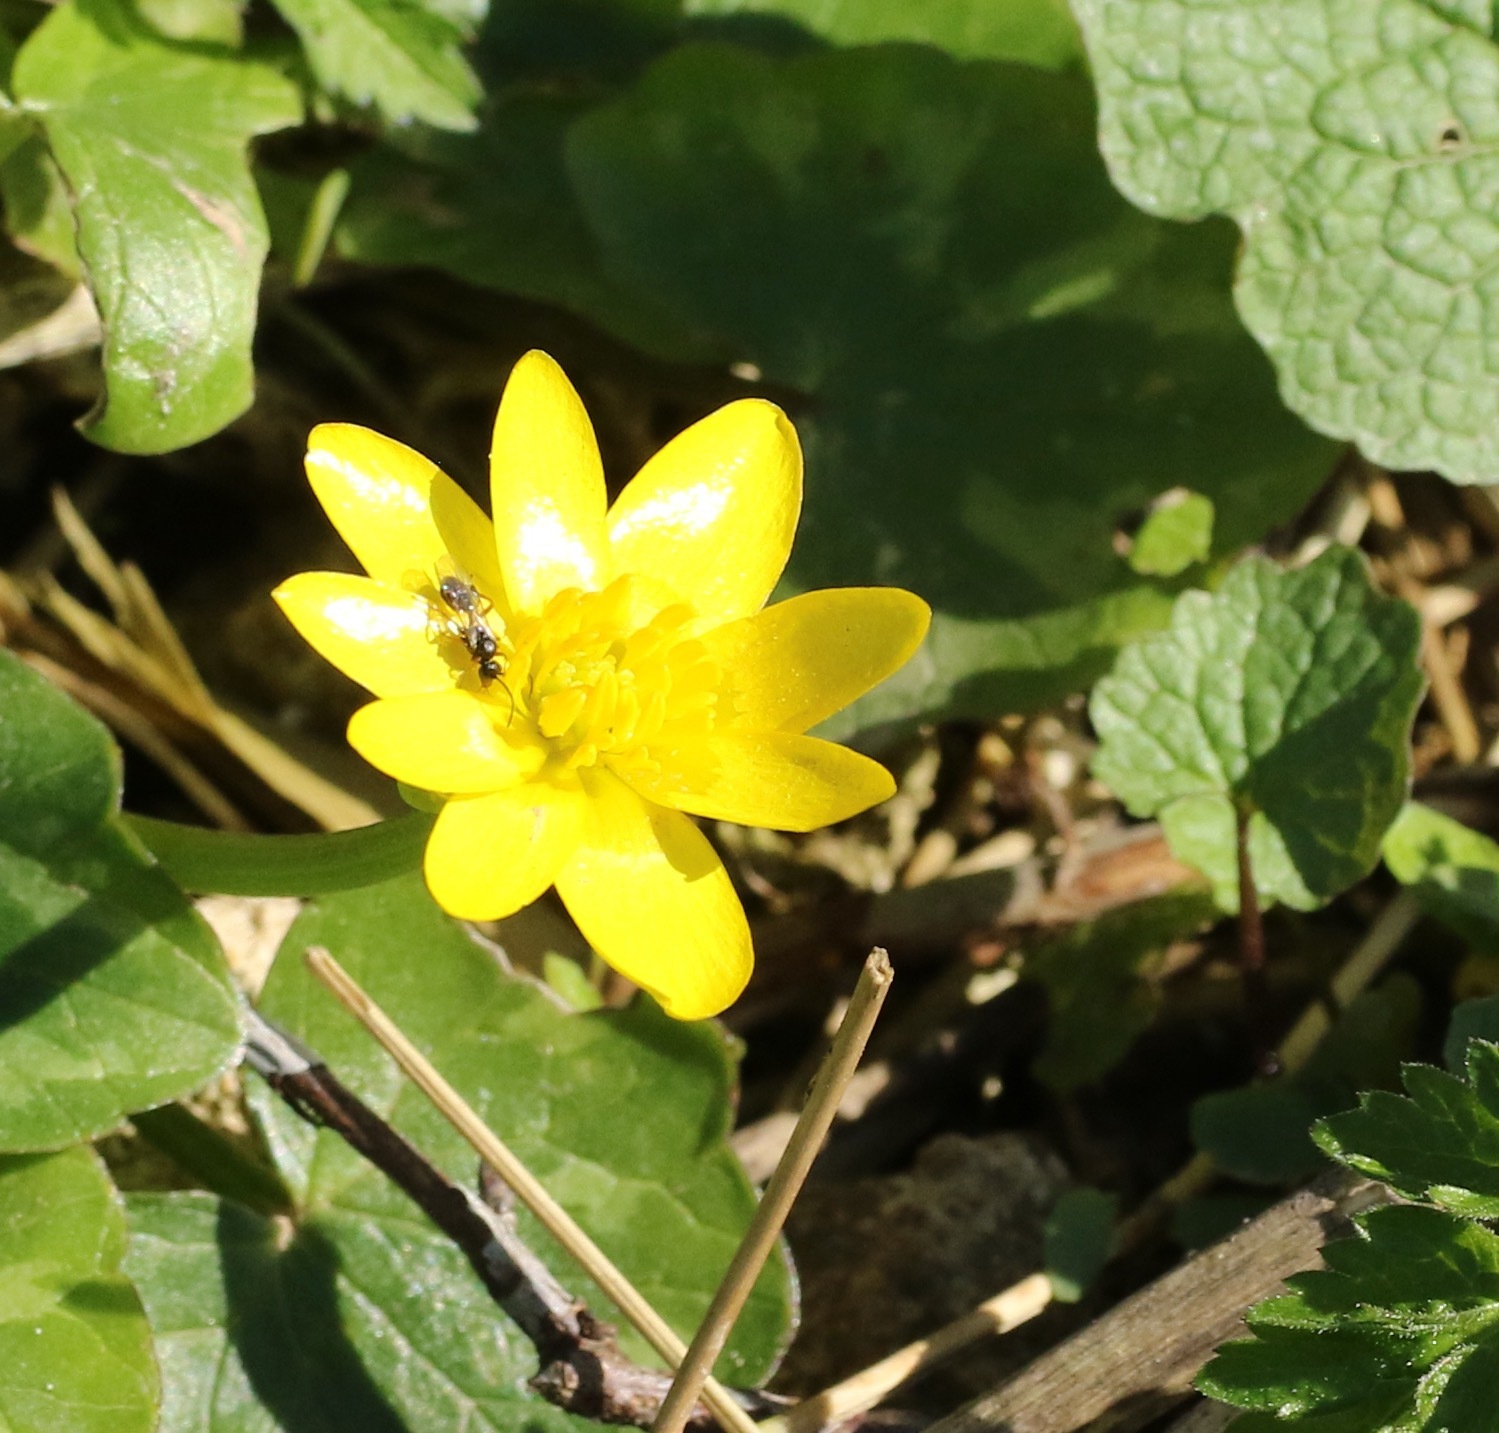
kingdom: Plantae
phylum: Tracheophyta
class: Magnoliopsida
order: Ranunculales
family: Ranunculaceae
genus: Ficaria
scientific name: Ficaria verna
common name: Lesser celandine
